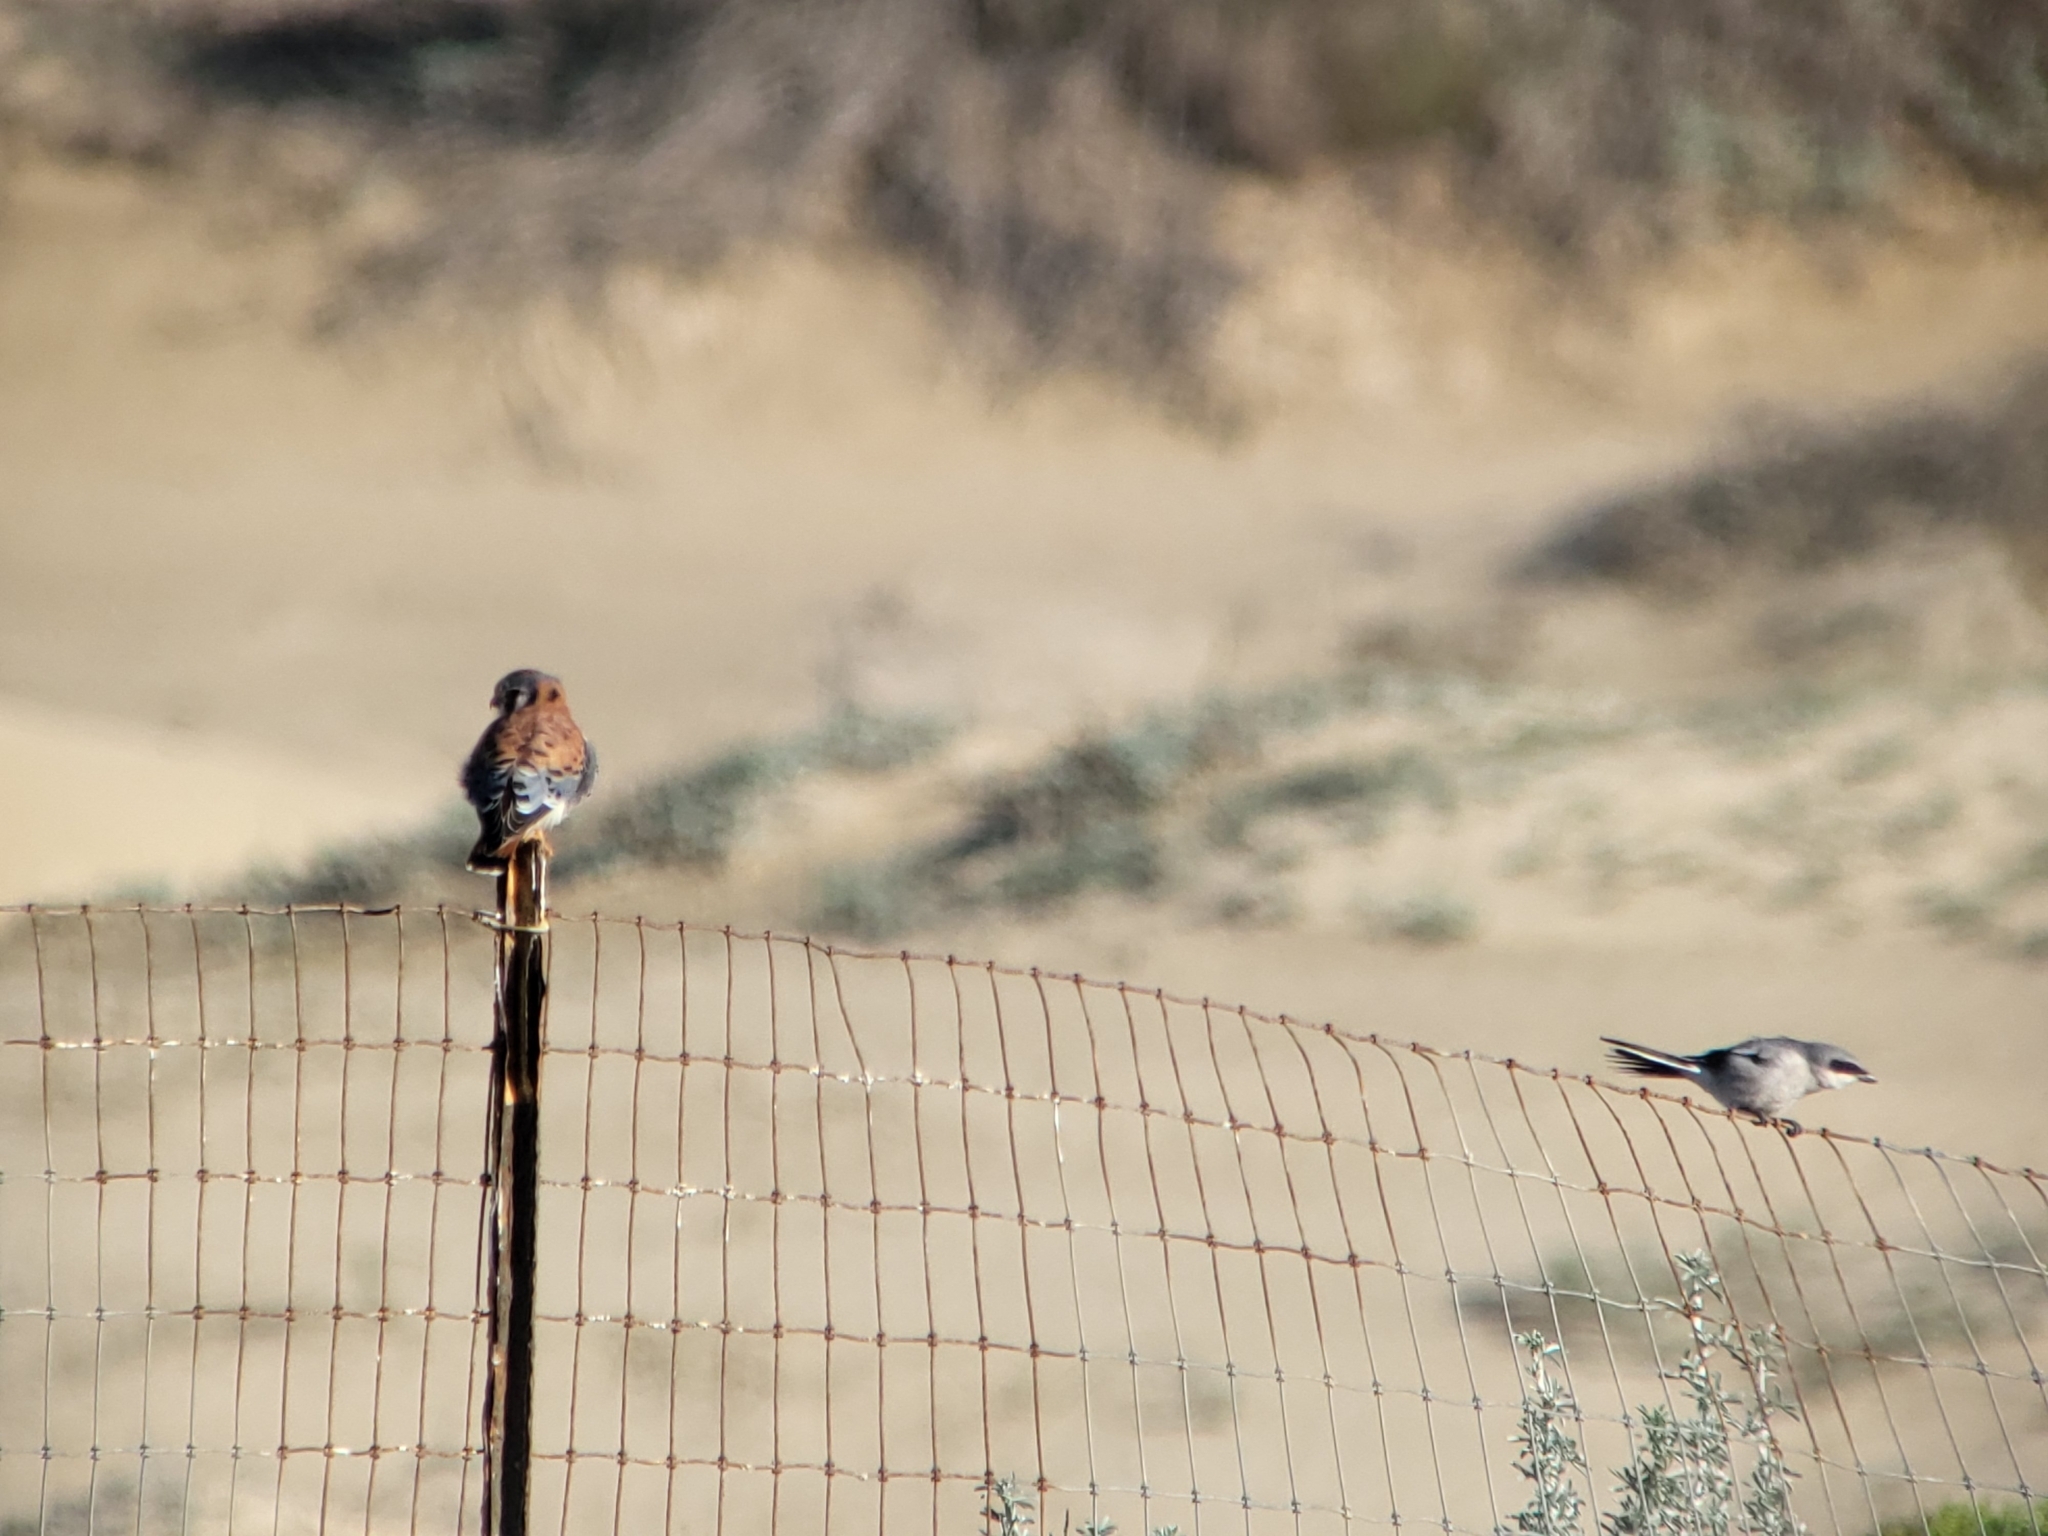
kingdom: Animalia
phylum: Chordata
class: Aves
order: Passeriformes
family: Laniidae
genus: Lanius
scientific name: Lanius ludovicianus
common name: Loggerhead shrike
